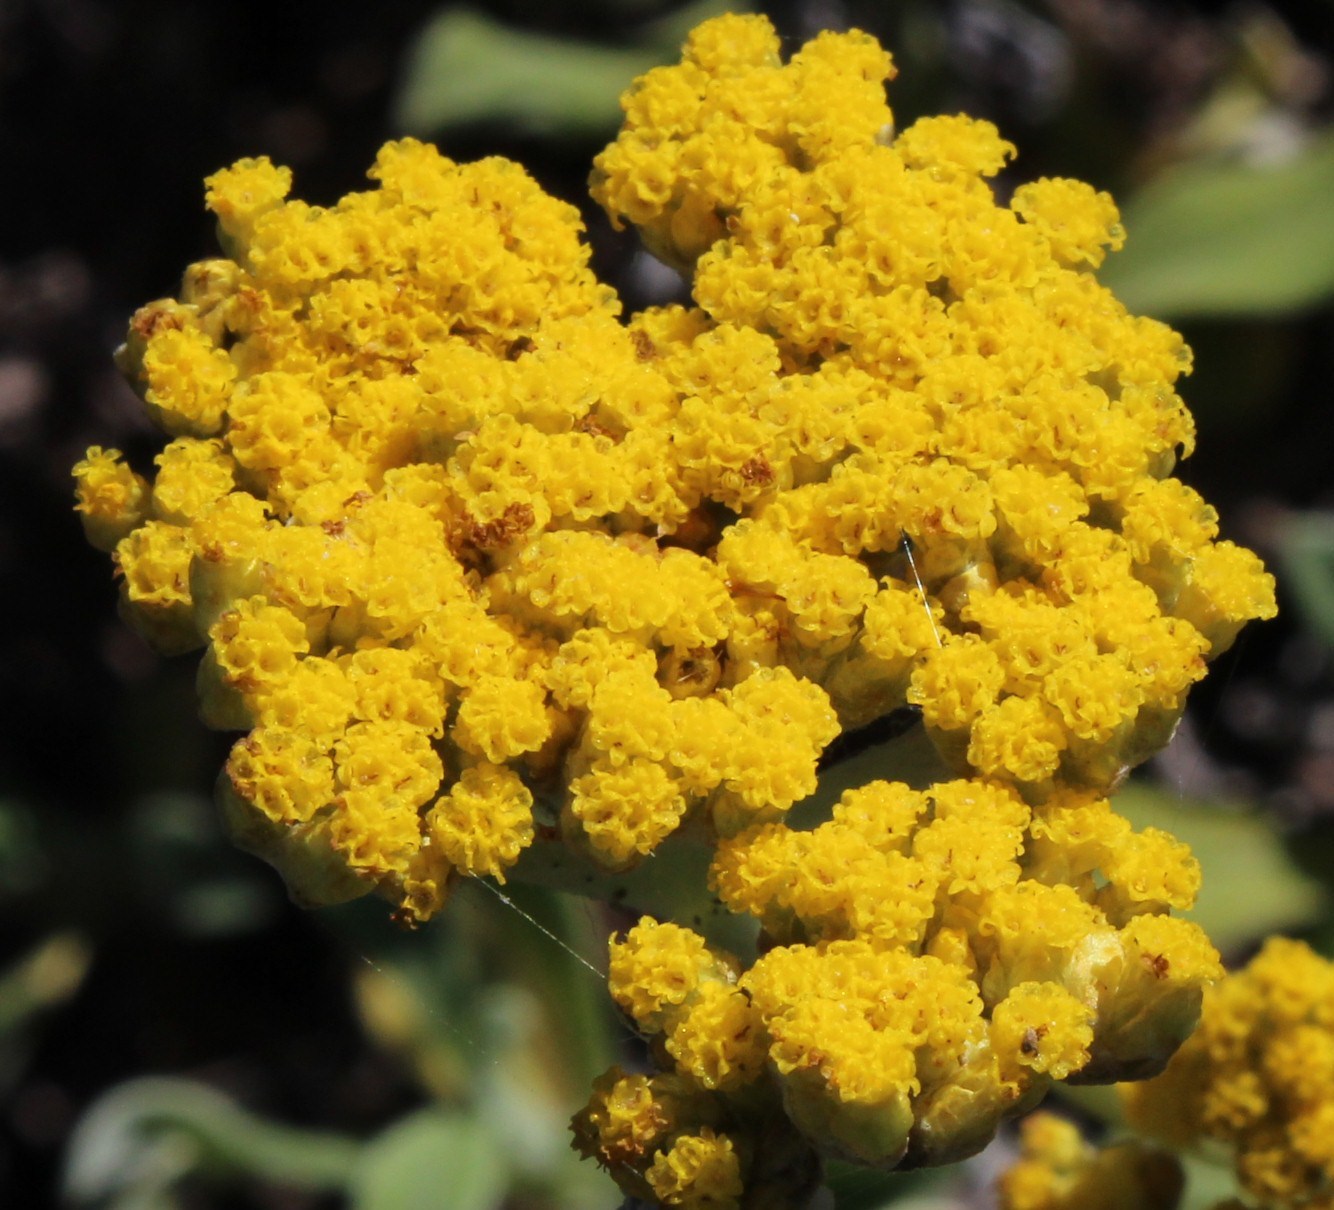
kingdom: Plantae
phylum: Tracheophyta
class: Magnoliopsida
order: Asterales
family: Asteraceae
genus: Helichrysum
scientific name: Helichrysum odoratissimum
